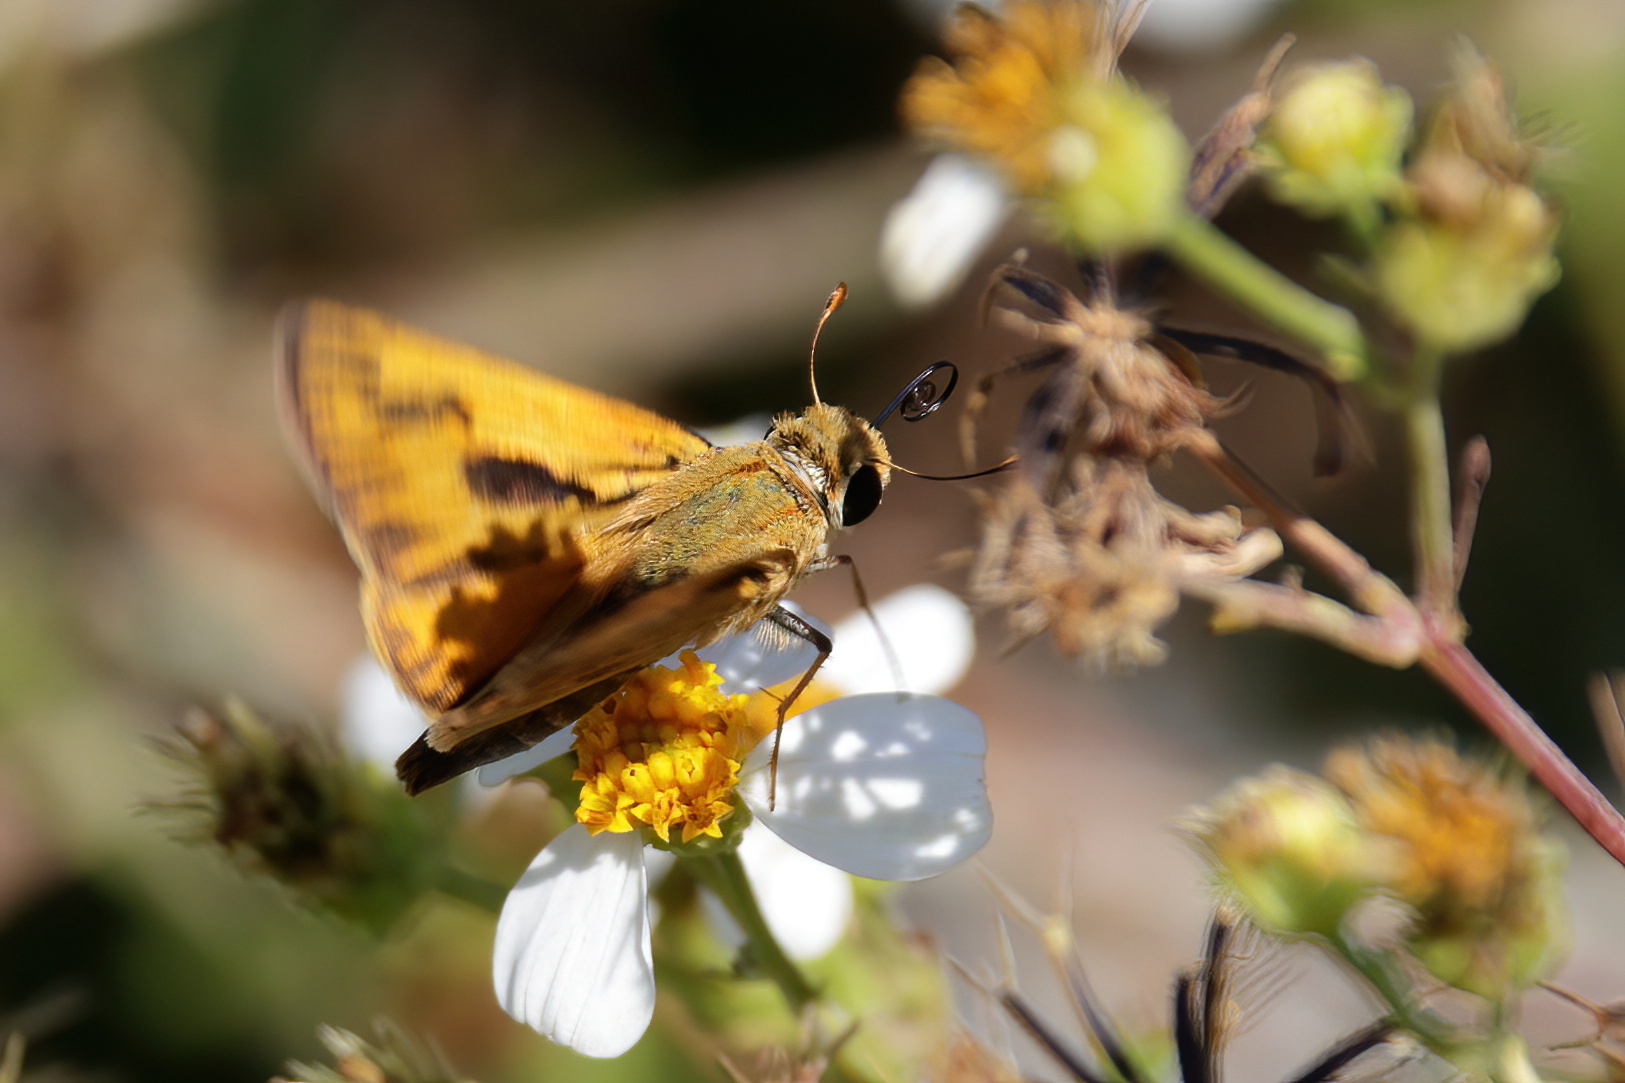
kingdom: Animalia
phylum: Arthropoda
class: Insecta
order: Lepidoptera
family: Hesperiidae
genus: Hylephila
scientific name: Hylephila phyleus
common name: Fiery skipper
